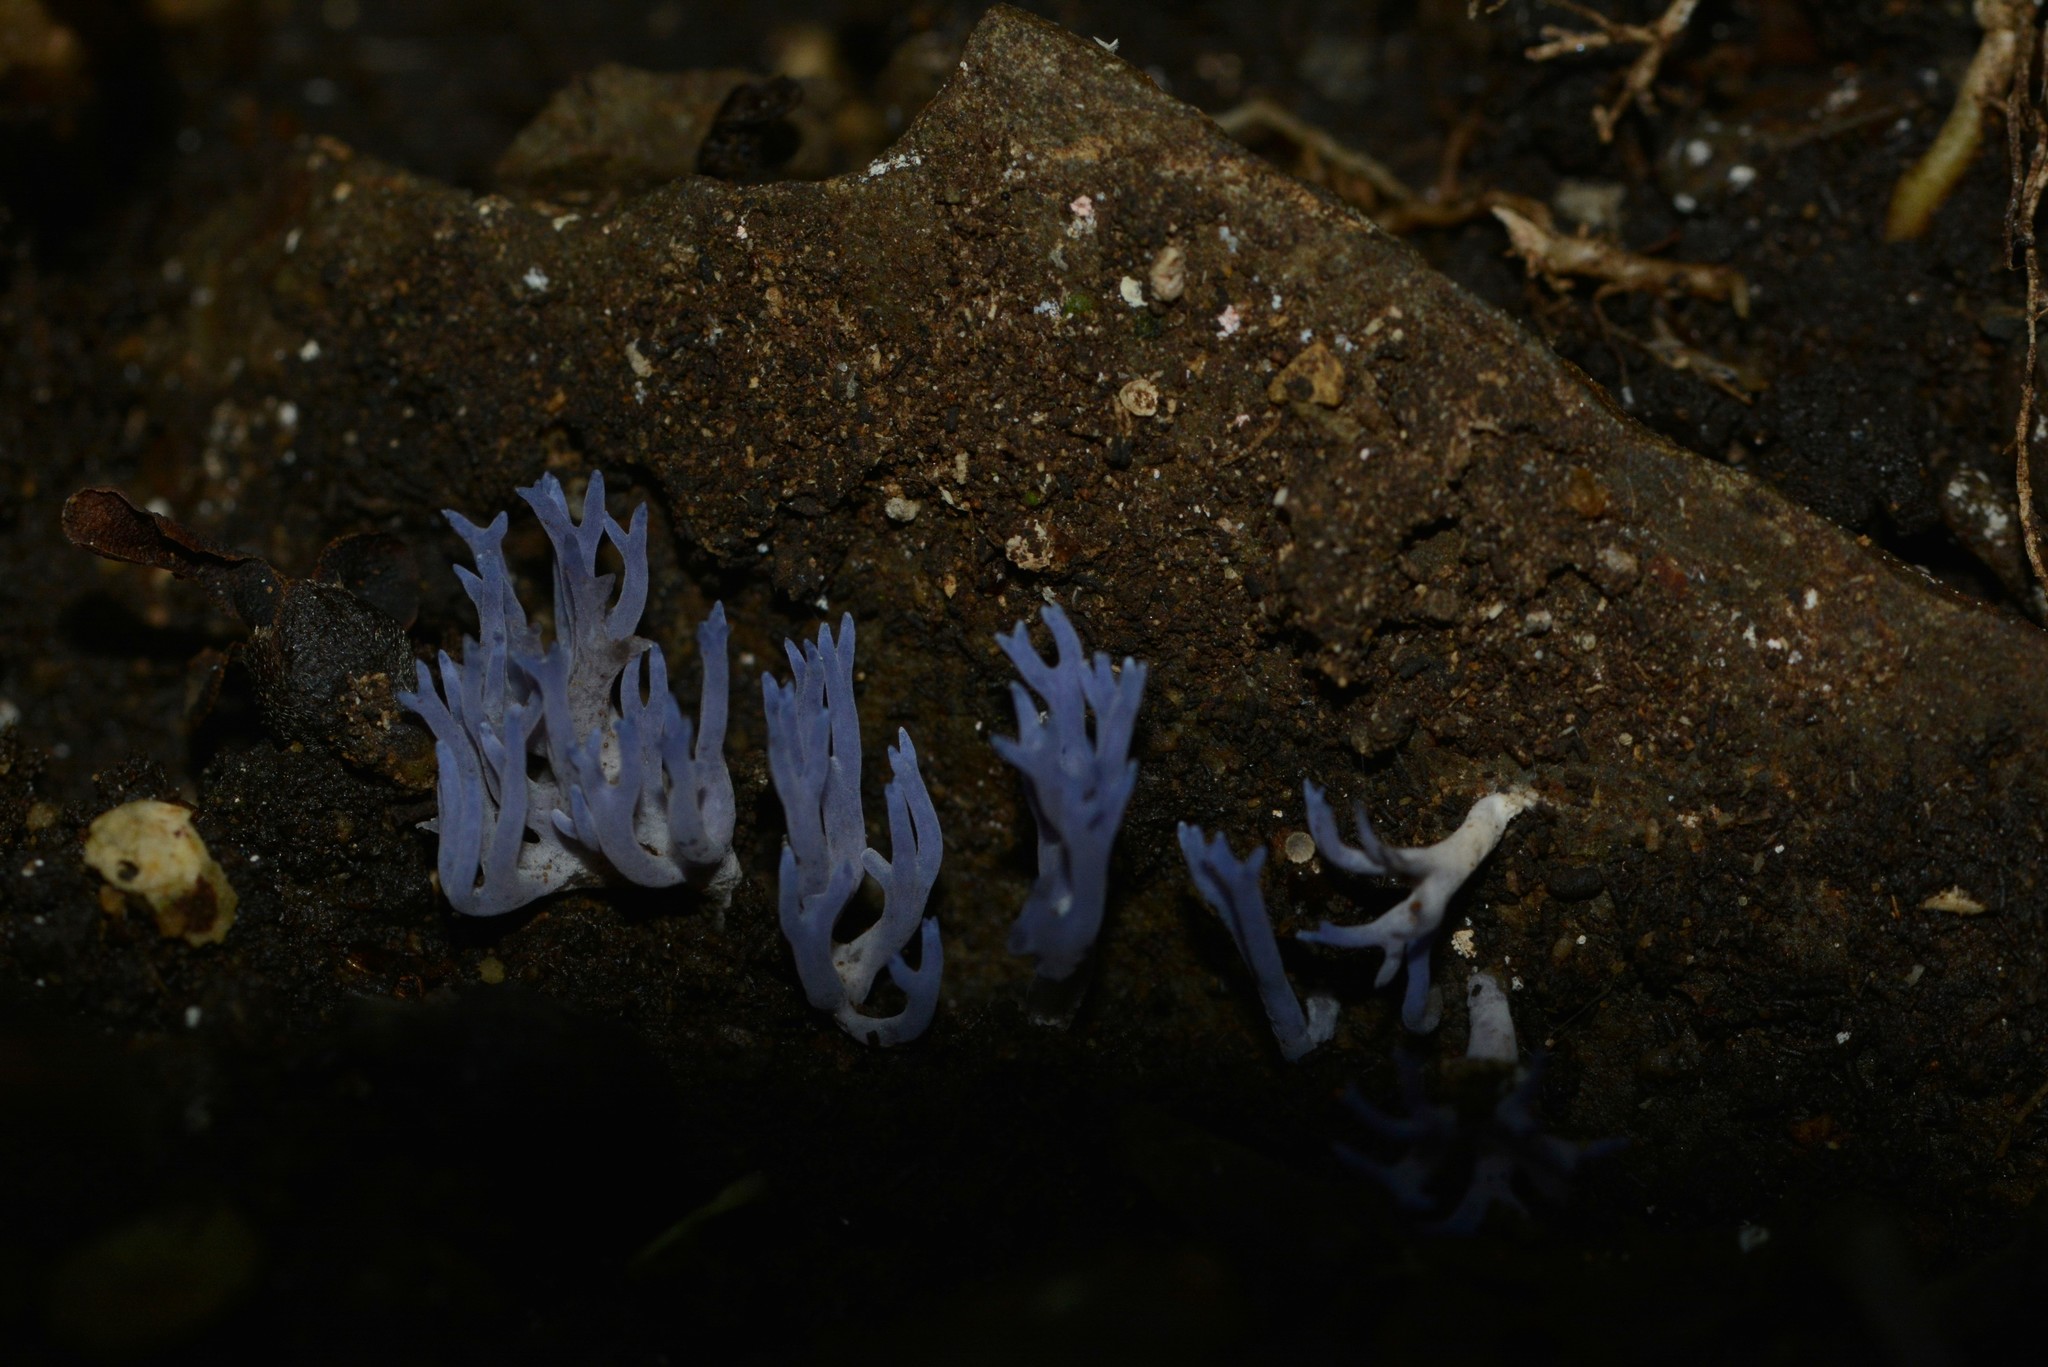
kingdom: Fungi
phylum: Basidiomycota
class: Agaricomycetes
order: Agaricales
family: Clavariaceae
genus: Ramariopsis
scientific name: Ramariopsis pulchella
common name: Lilac coral
